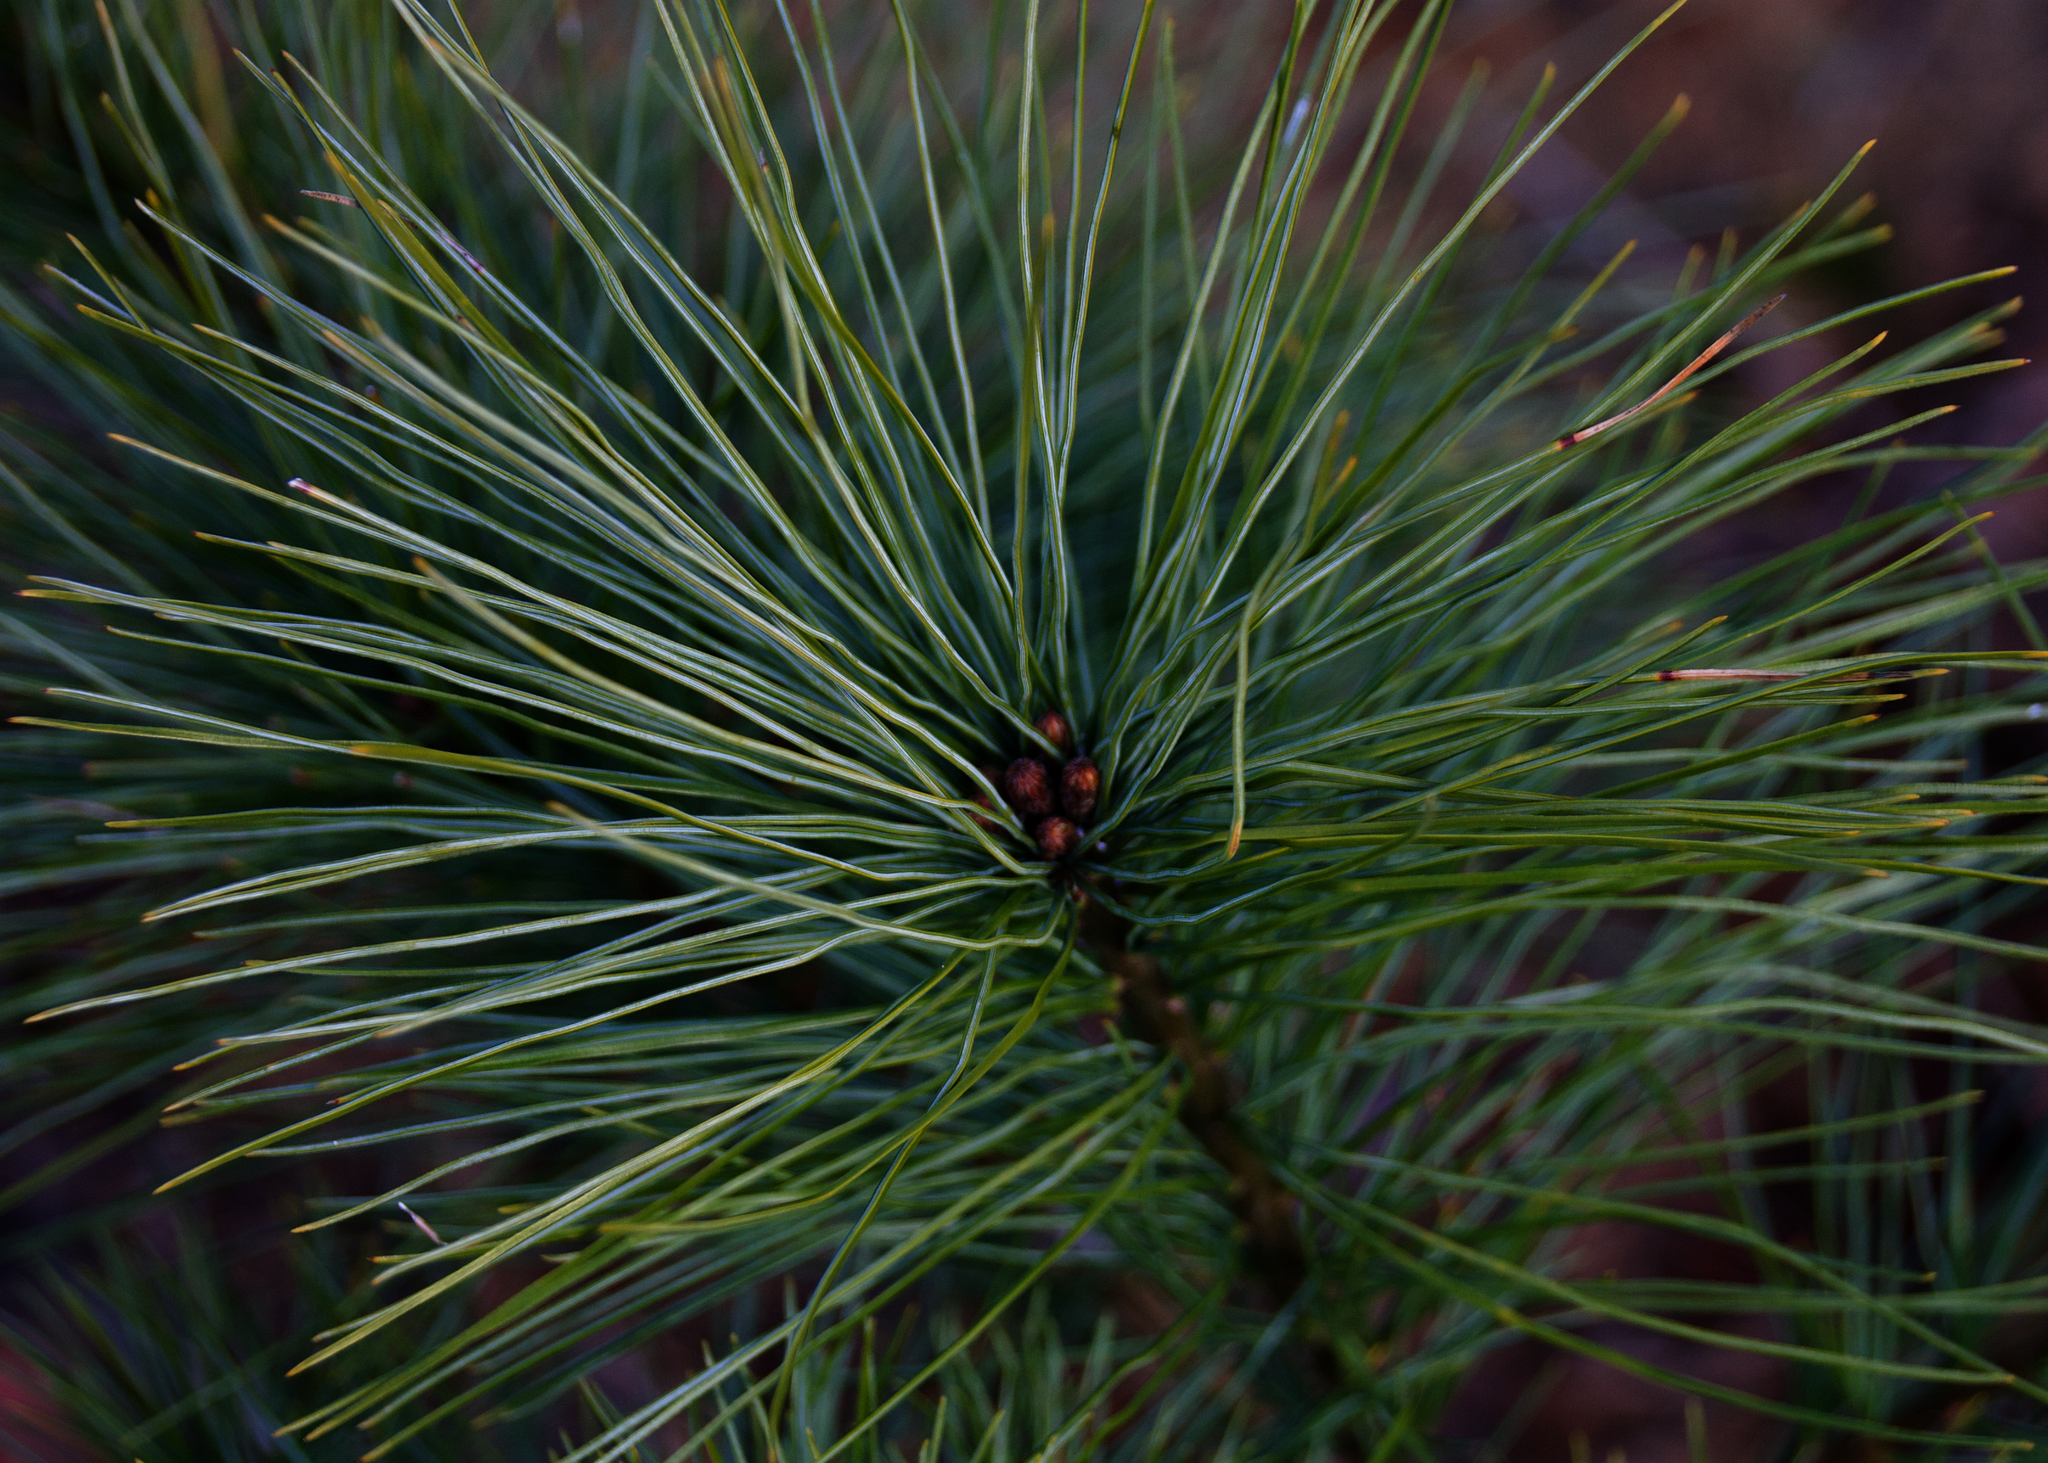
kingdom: Plantae
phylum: Tracheophyta
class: Pinopsida
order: Pinales
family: Pinaceae
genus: Pinus
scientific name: Pinus strobus
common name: Weymouth pine
